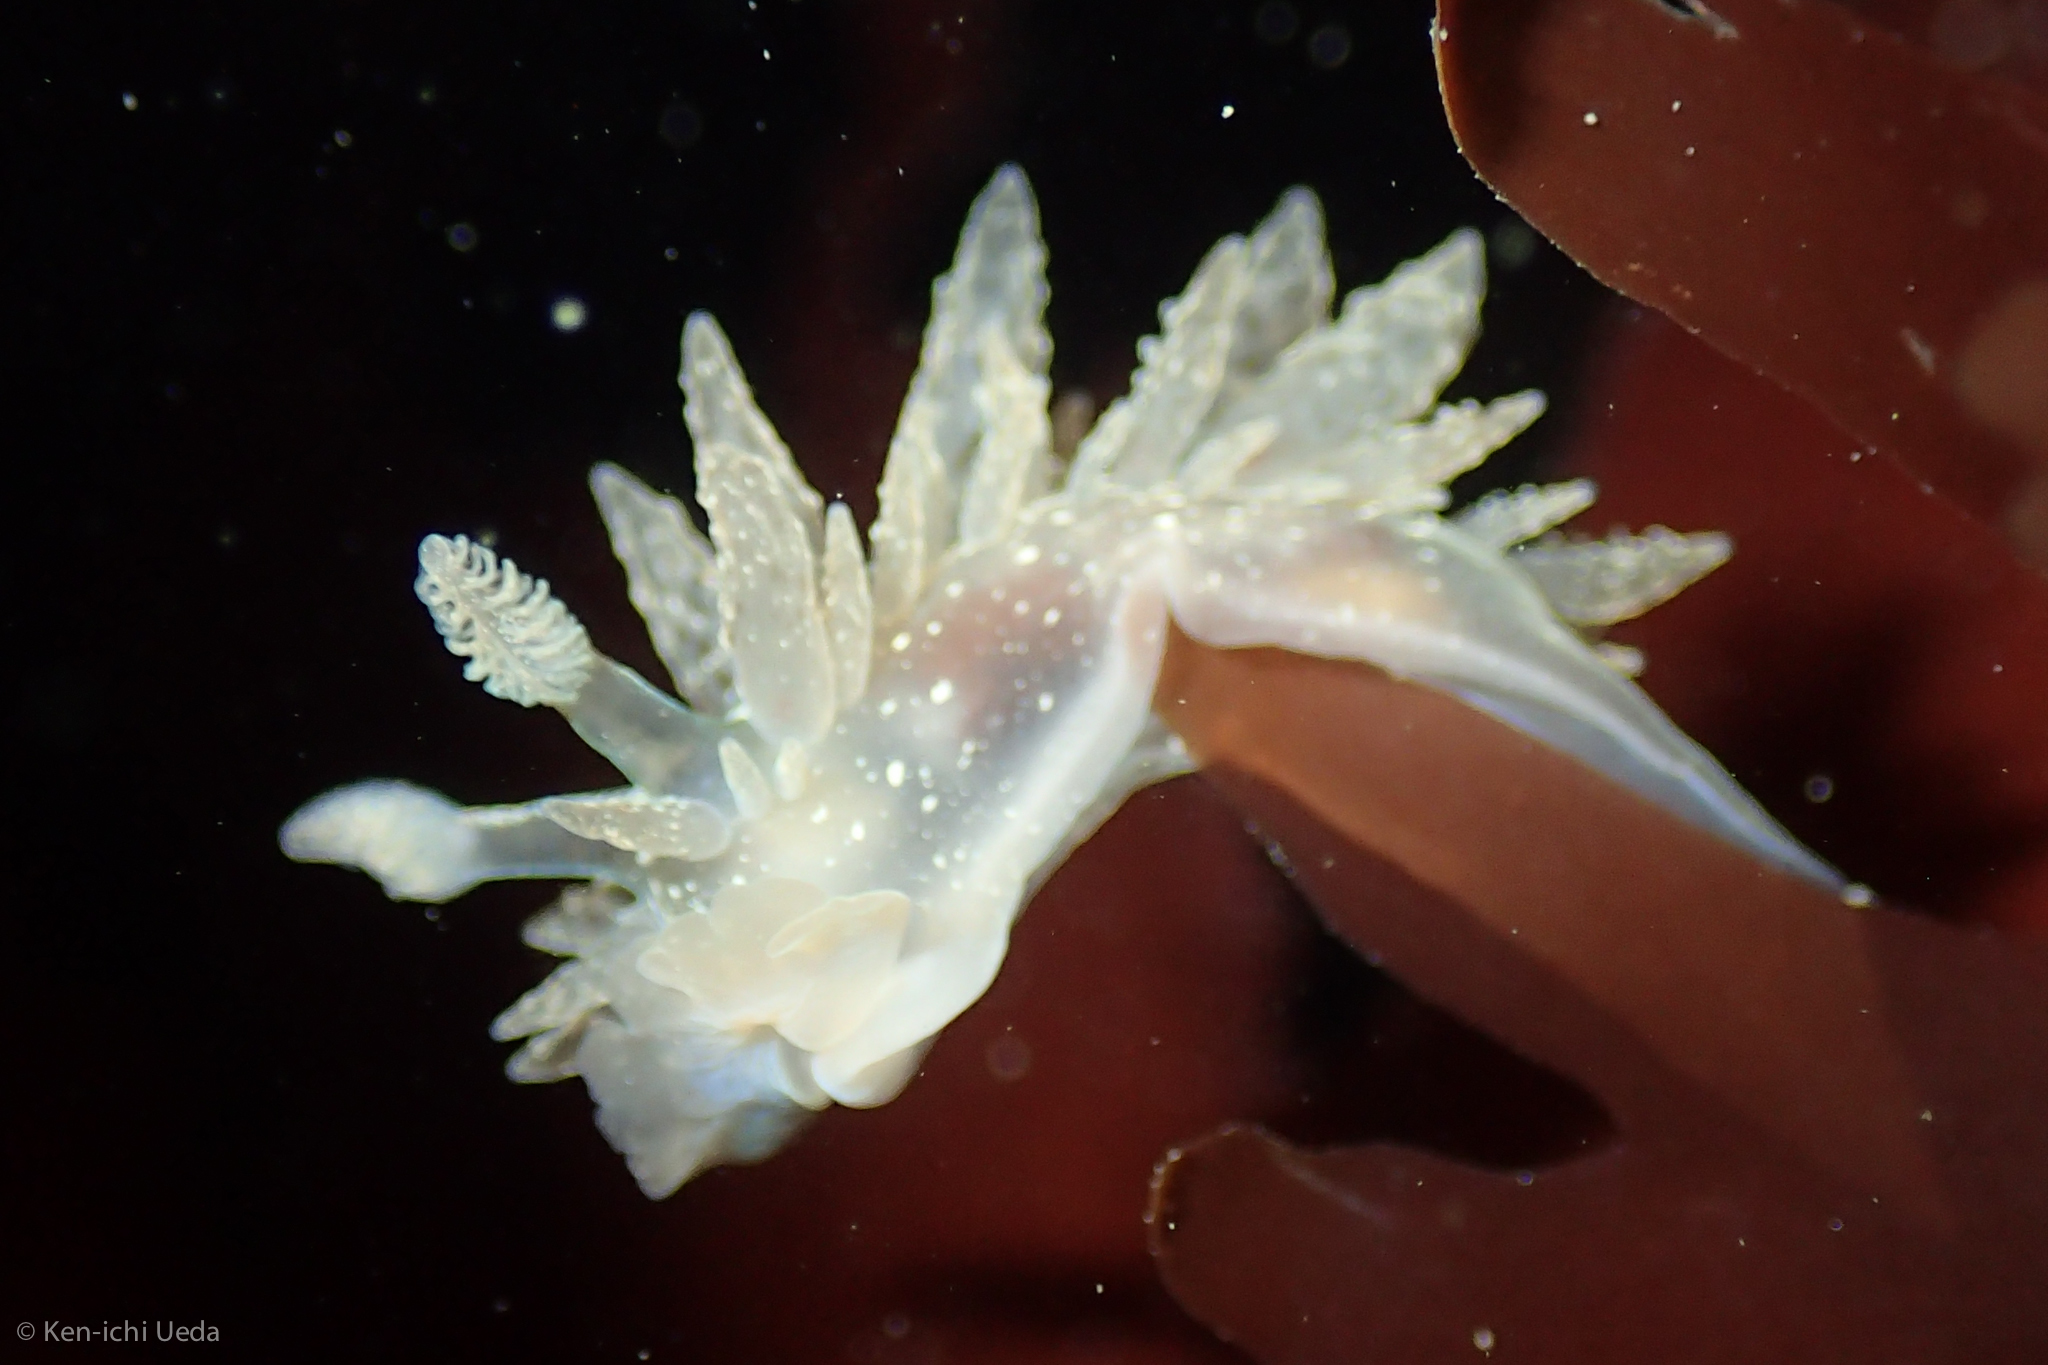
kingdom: Animalia
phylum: Mollusca
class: Gastropoda
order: Nudibranchia
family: Dironidae
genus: Dirona
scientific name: Dirona picta
